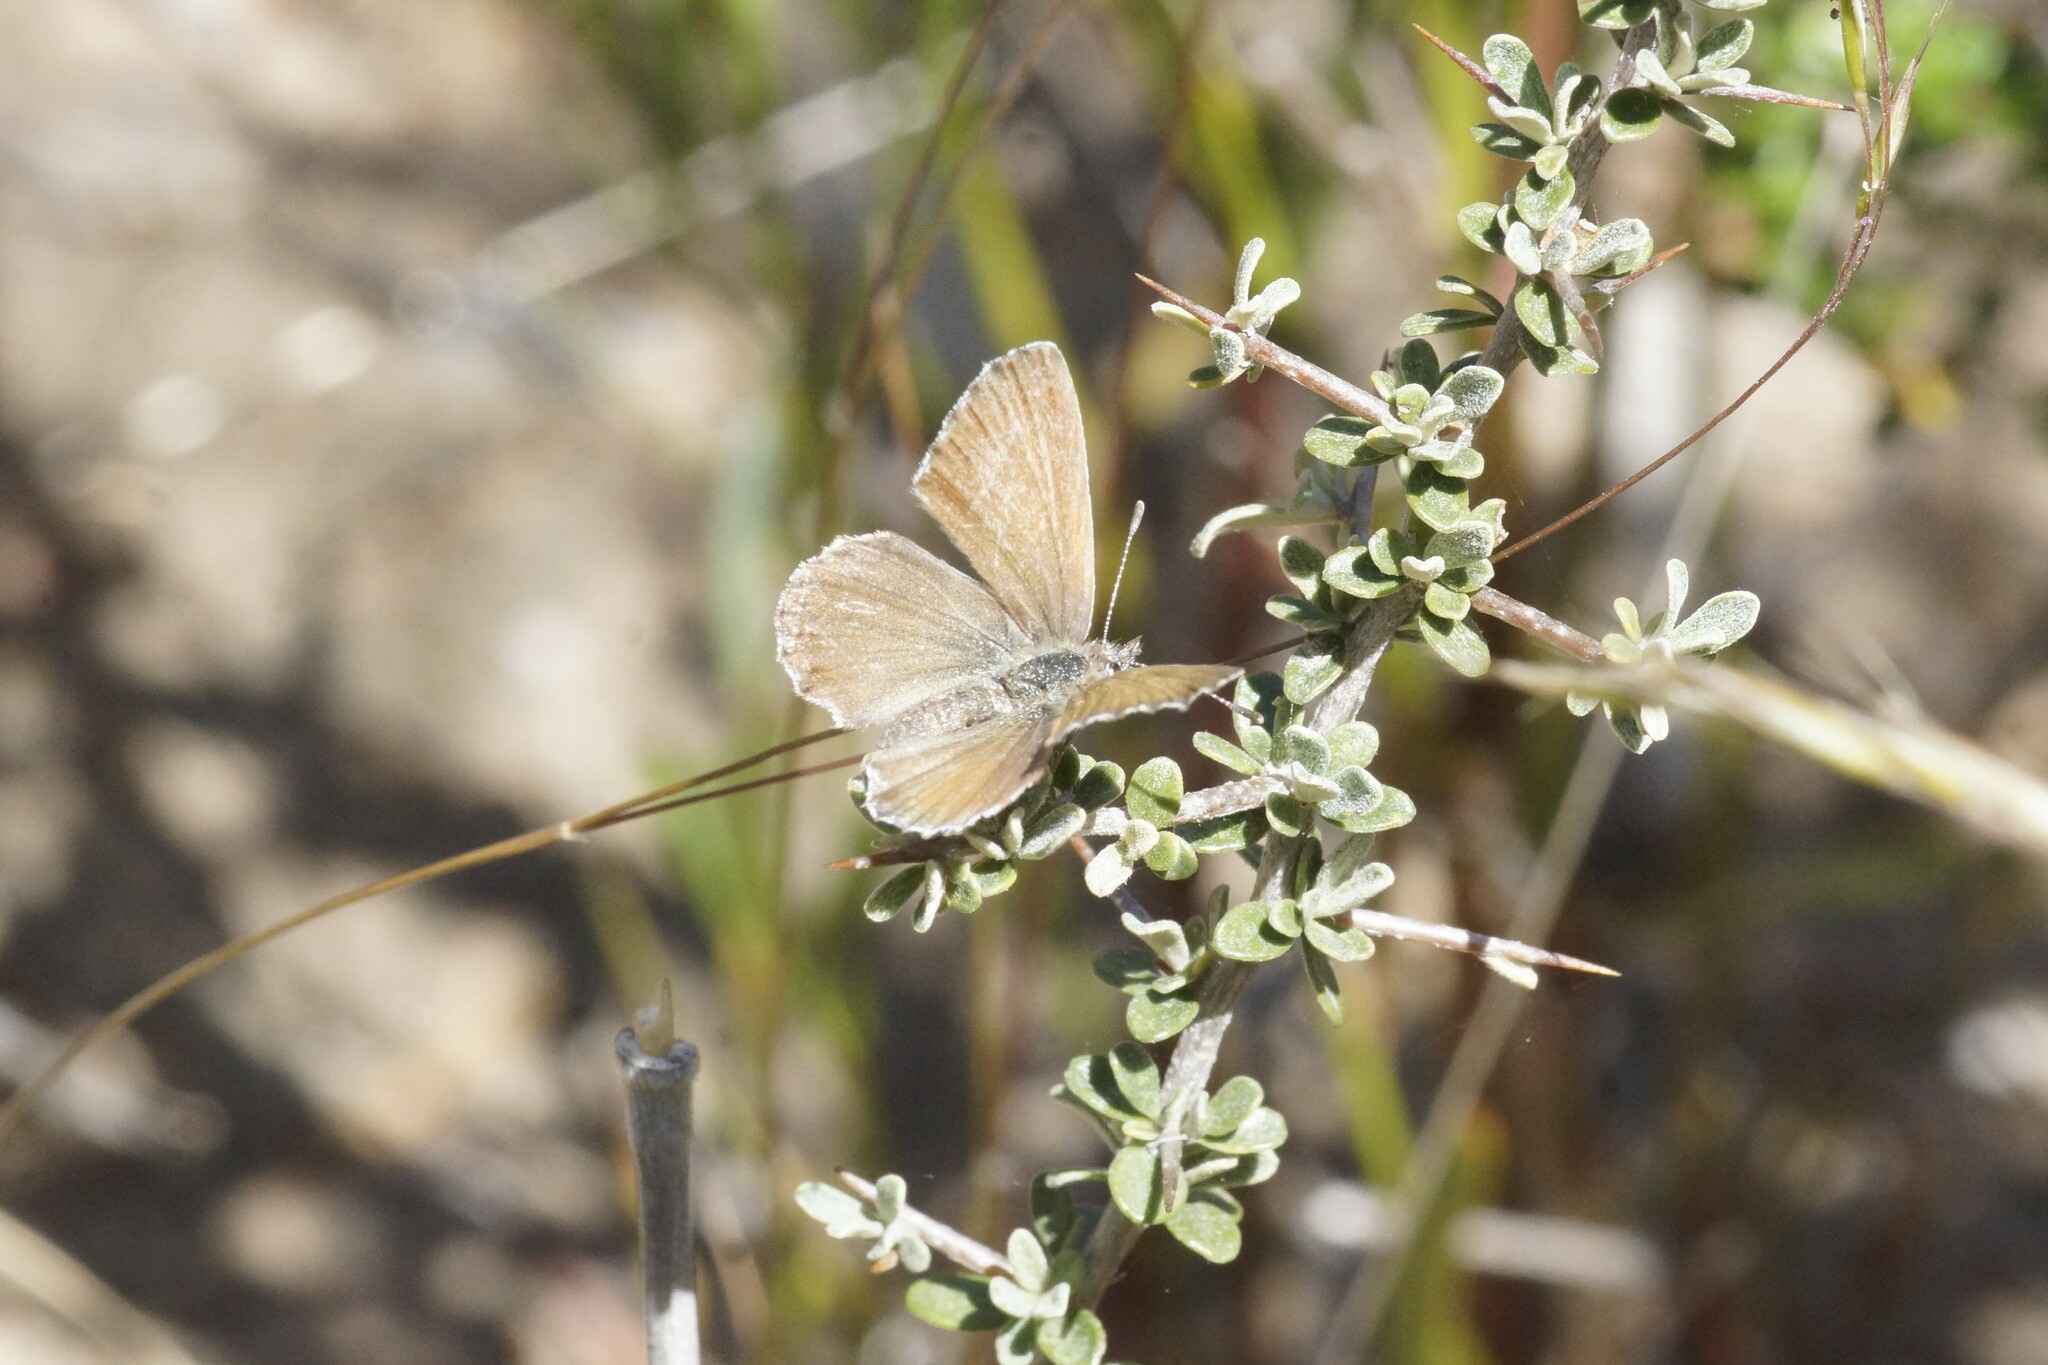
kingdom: Animalia
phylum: Arthropoda
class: Insecta
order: Lepidoptera
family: Lycaenidae
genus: Neolucia
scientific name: Neolucia agricola
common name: Fringed blue
